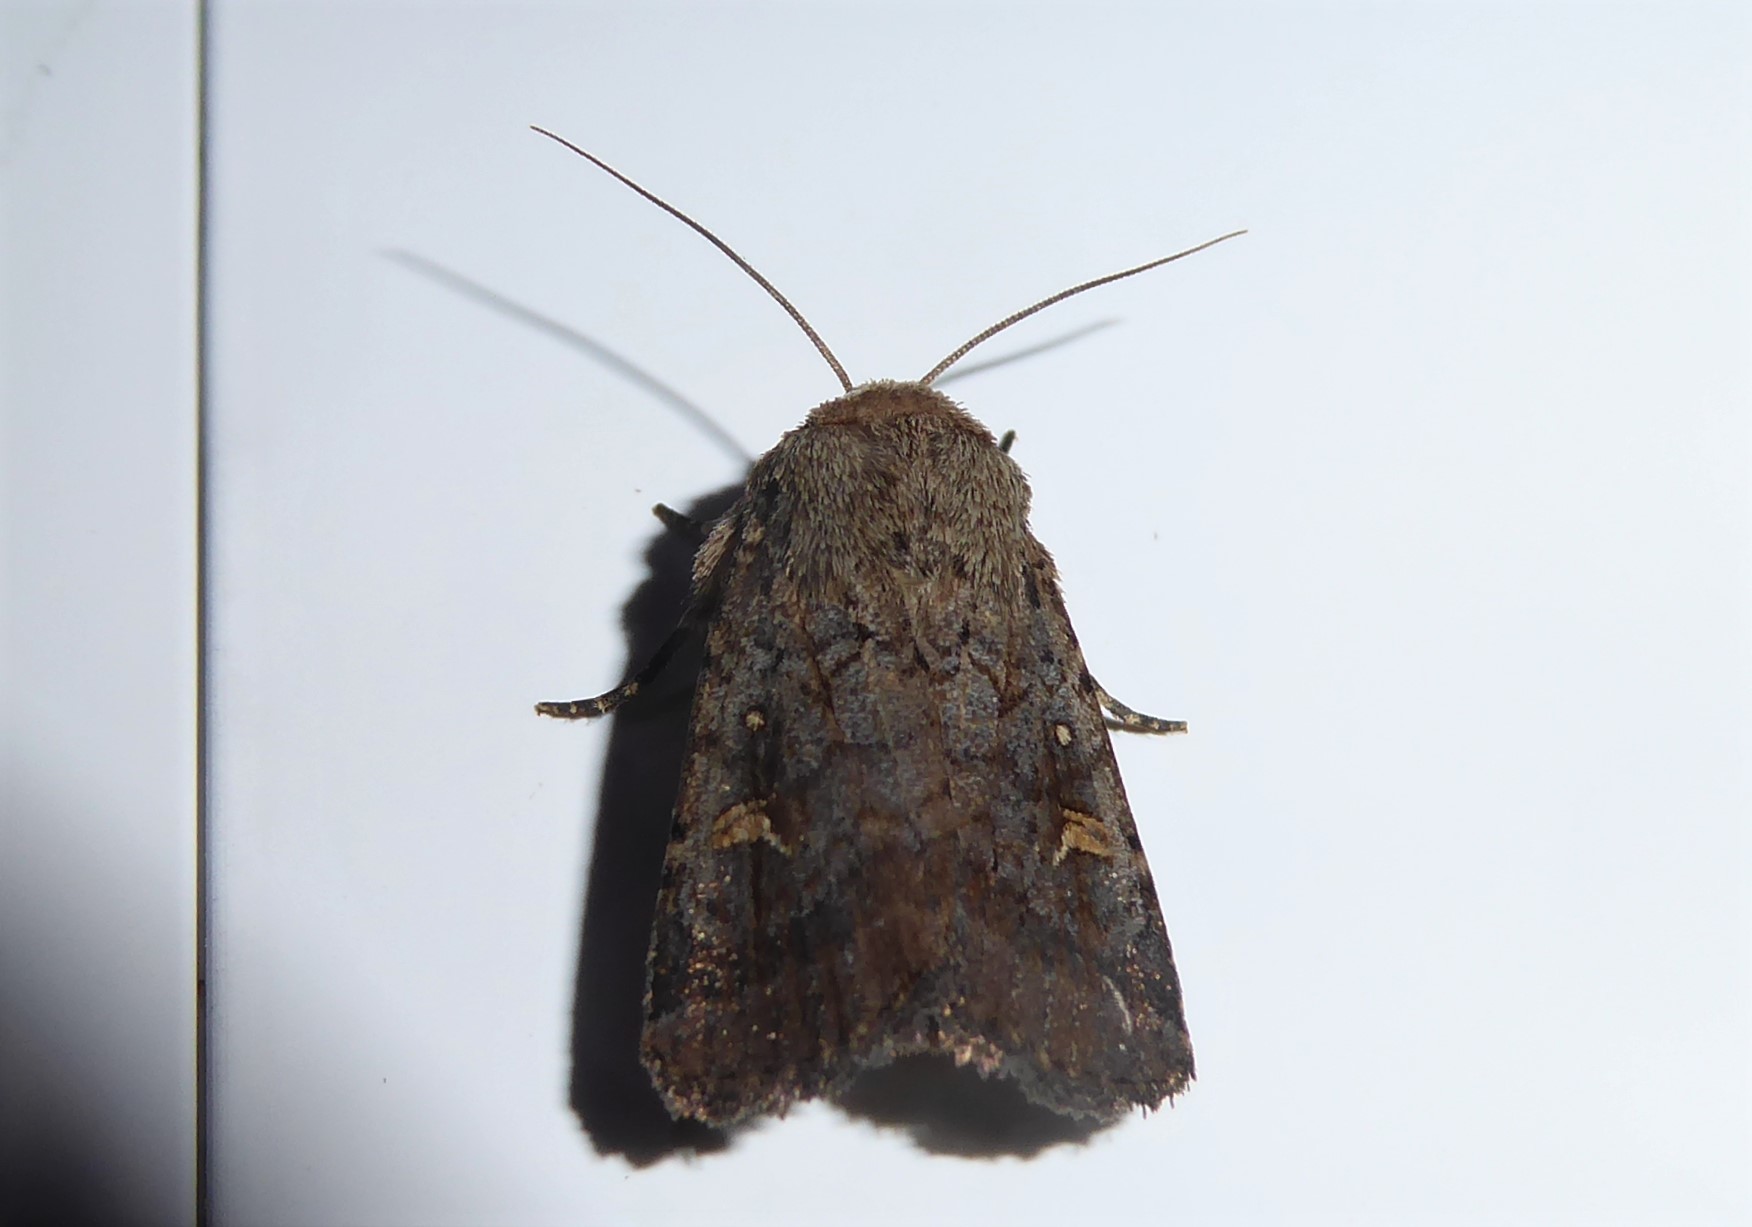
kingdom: Animalia
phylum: Arthropoda
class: Insecta
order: Lepidoptera
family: Noctuidae
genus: Proteuxoa
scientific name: Proteuxoa tetronycha
